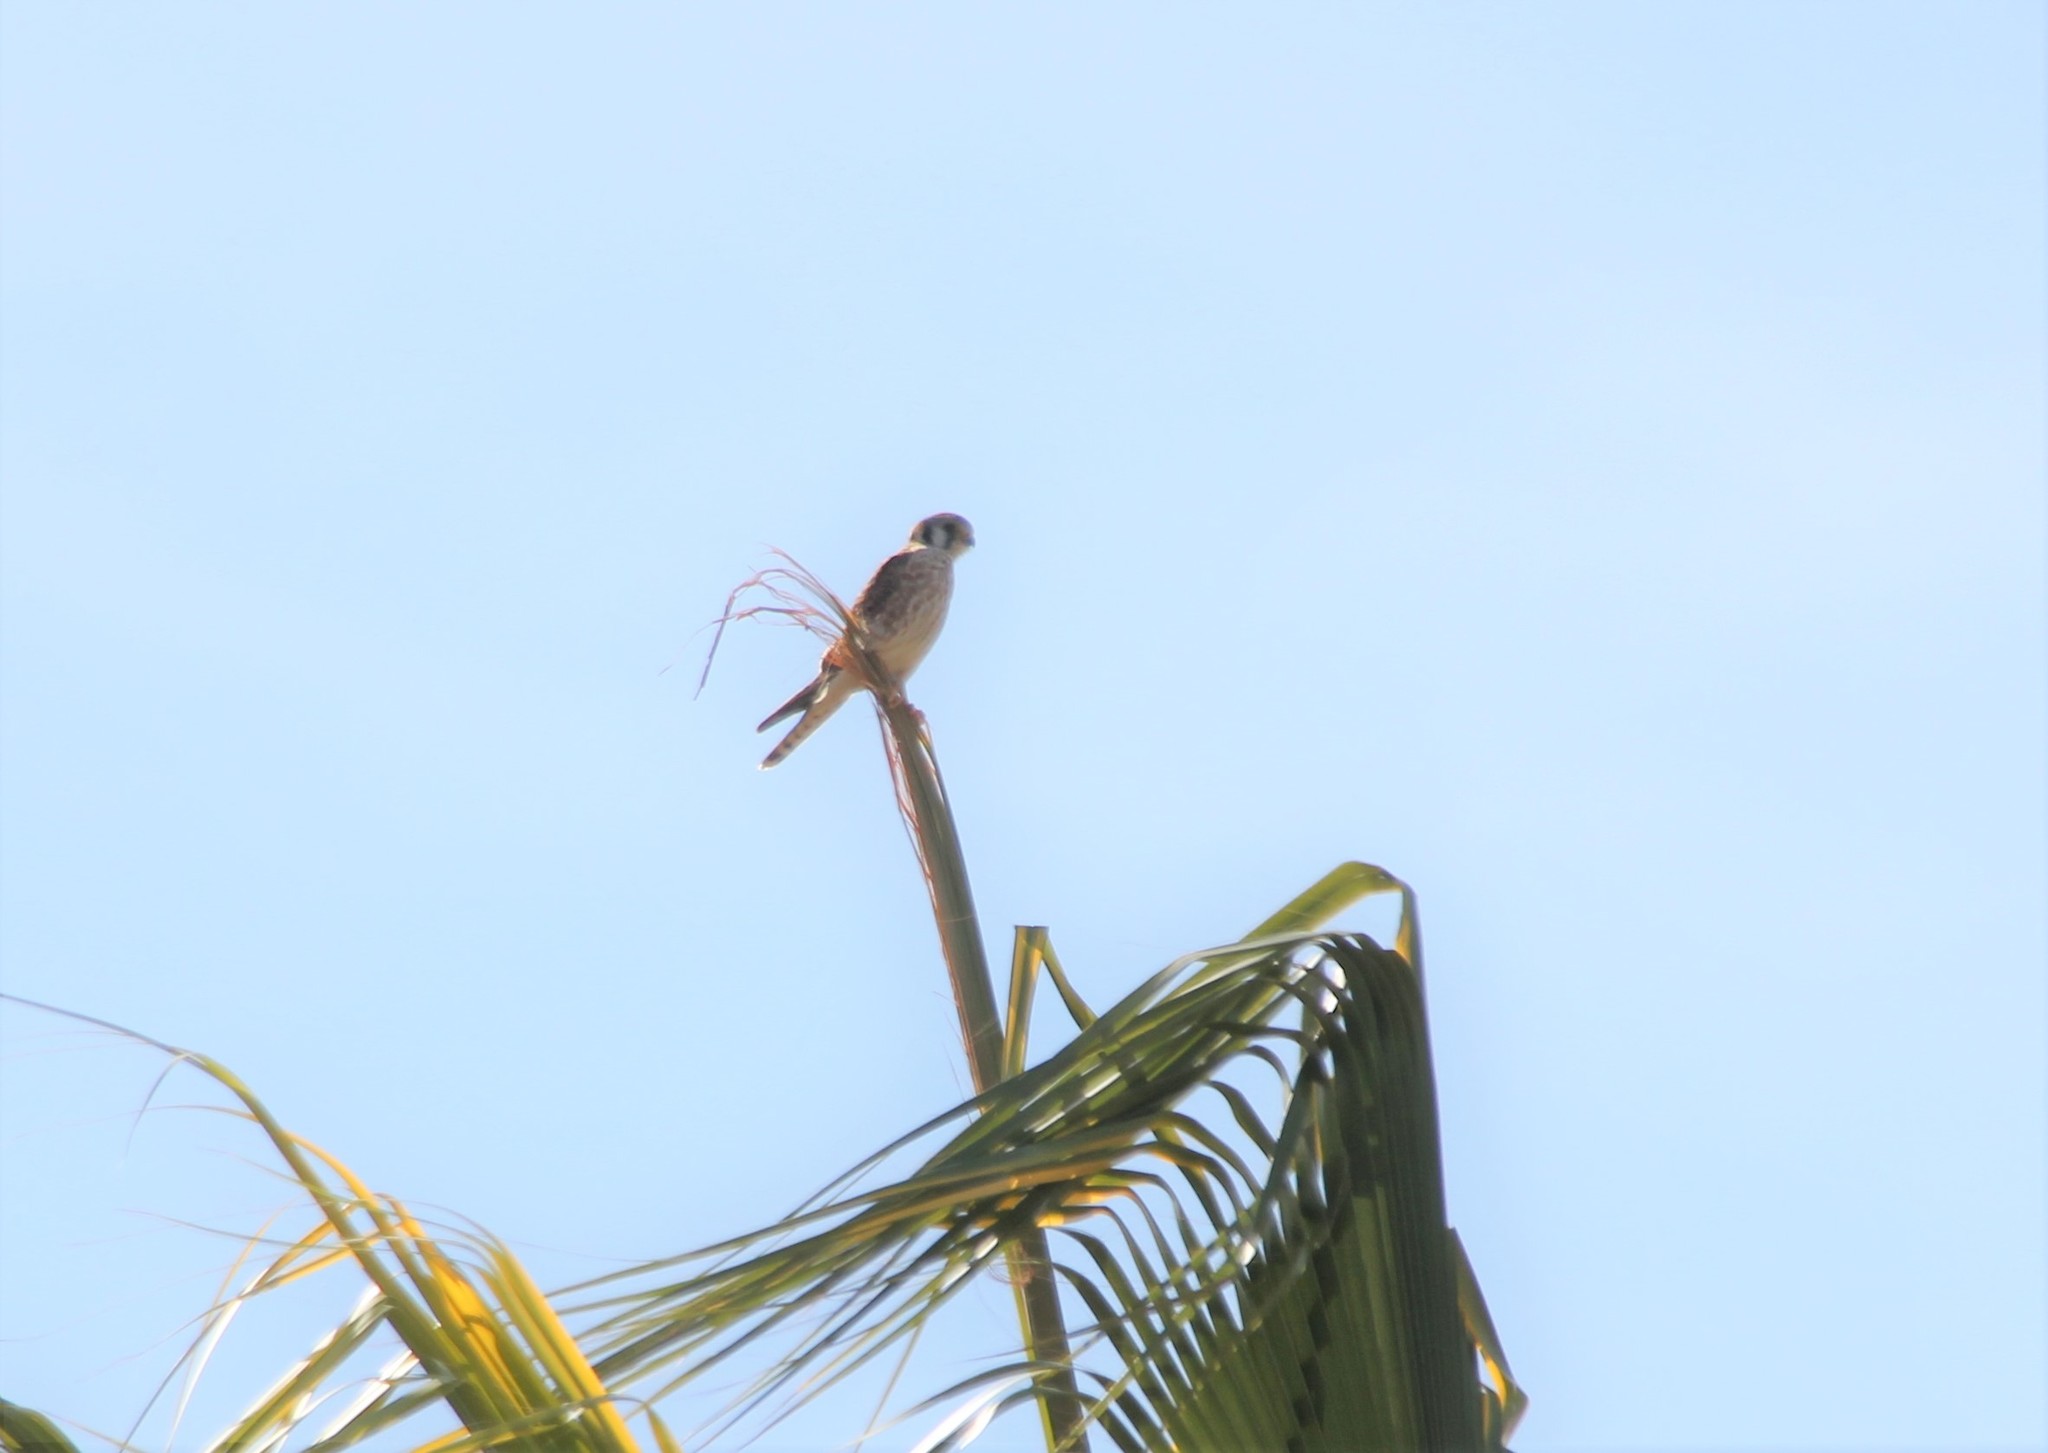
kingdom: Animalia
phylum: Chordata
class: Aves
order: Falconiformes
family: Falconidae
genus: Falco
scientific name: Falco sparverius
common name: American kestrel
